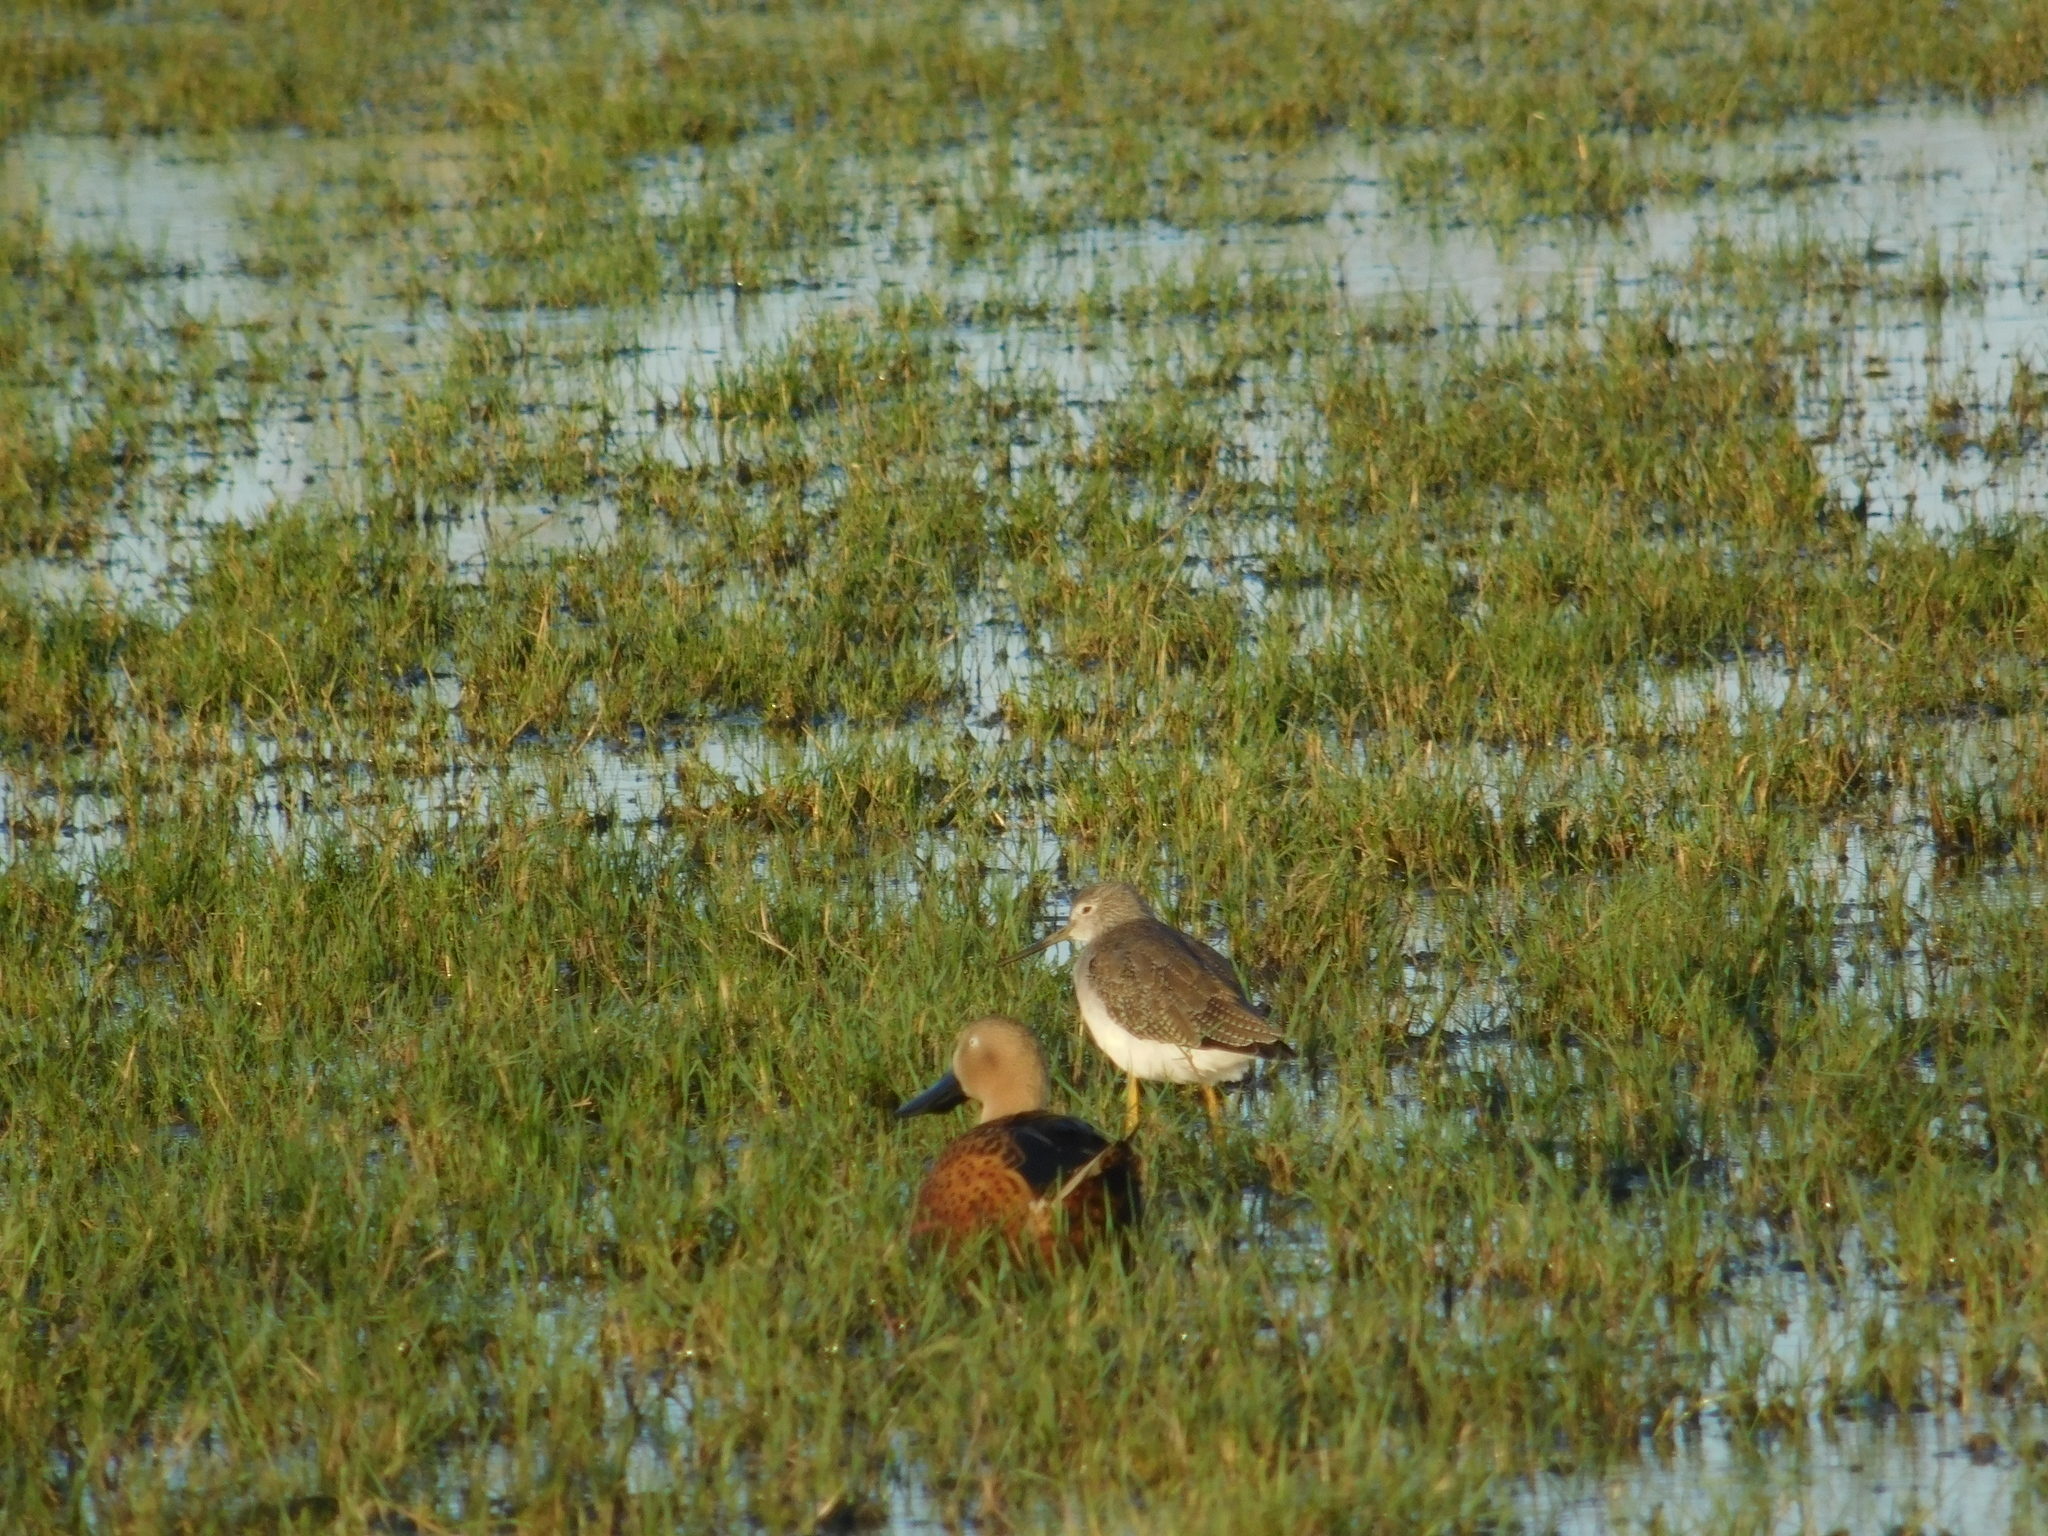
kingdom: Animalia
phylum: Chordata
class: Aves
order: Charadriiformes
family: Scolopacidae
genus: Tringa
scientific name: Tringa melanoleuca
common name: Greater yellowlegs
